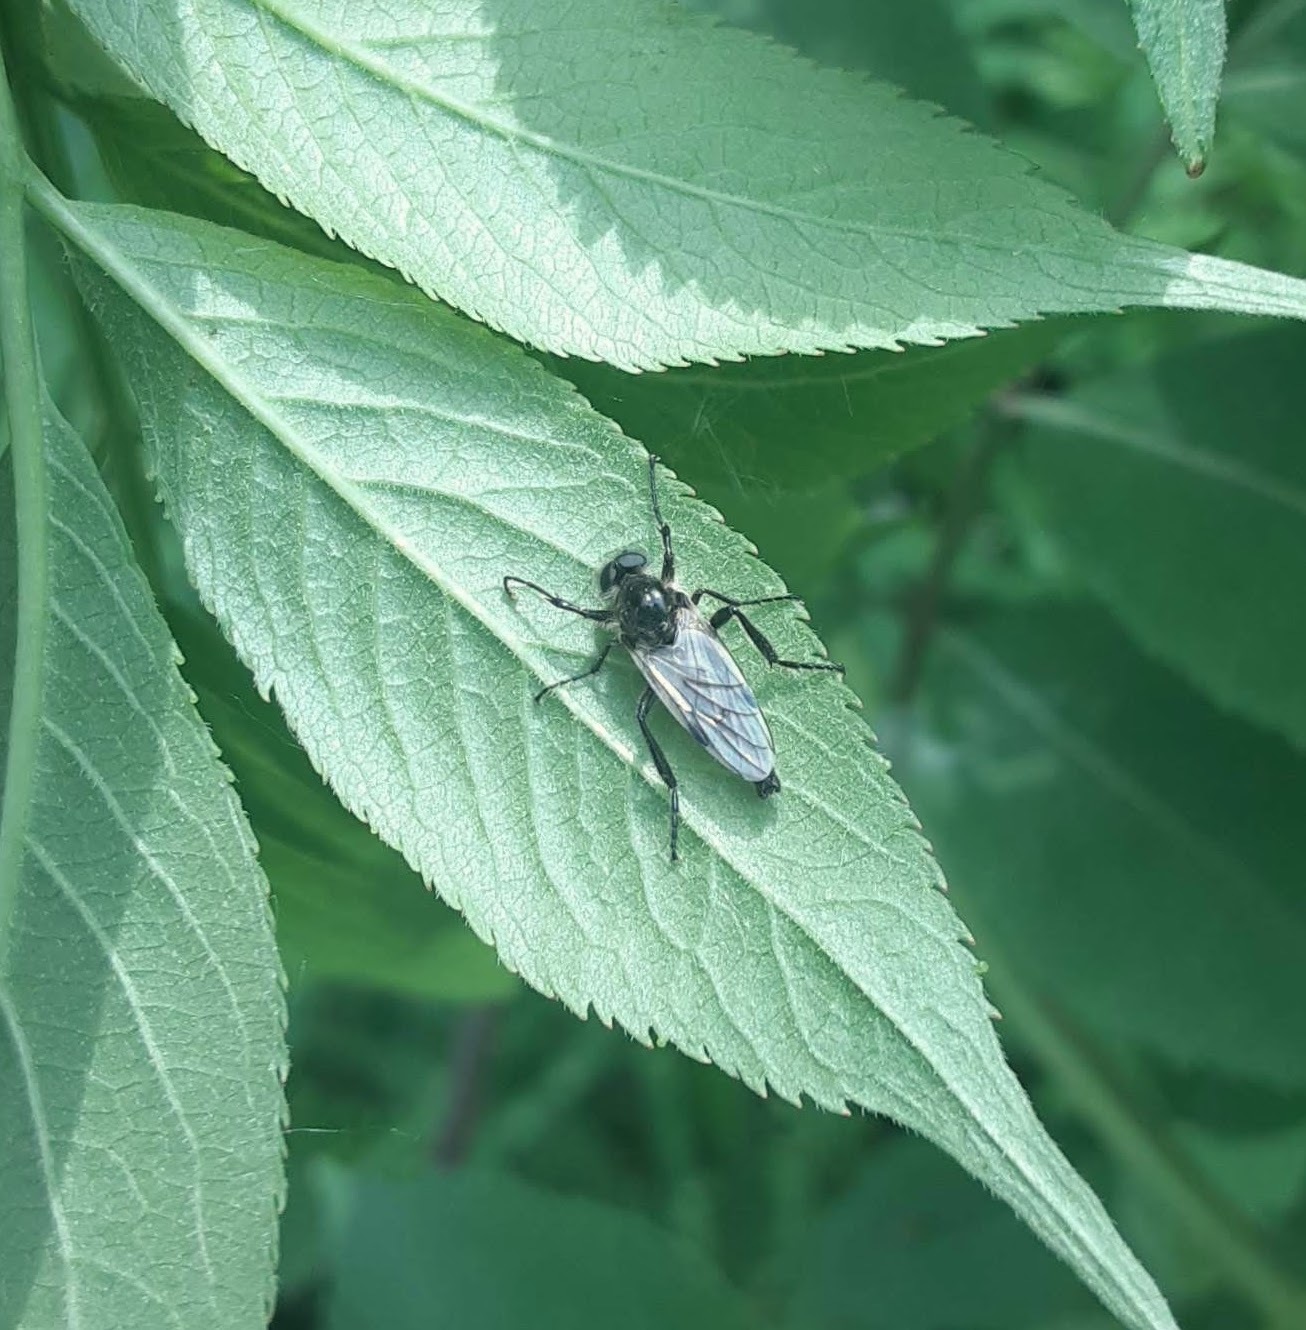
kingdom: Animalia
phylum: Arthropoda
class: Insecta
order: Diptera
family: Bibionidae
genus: Bibio
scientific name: Bibio albipennis
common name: White-winged march fly
